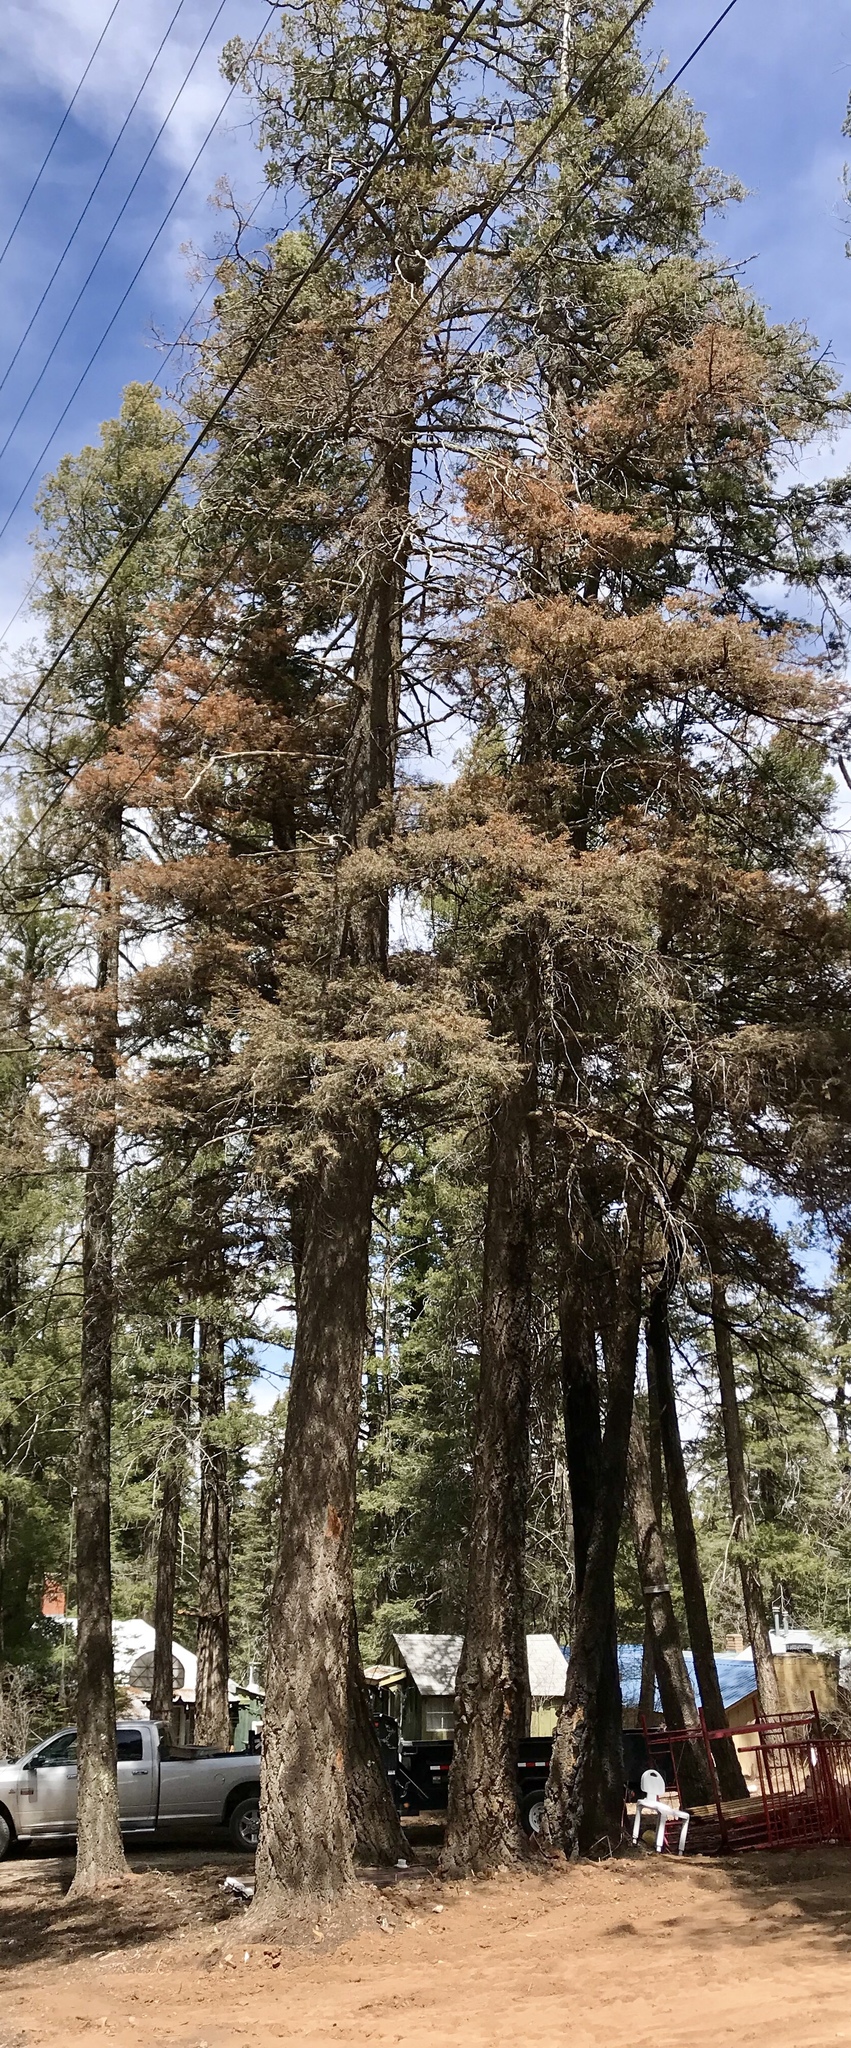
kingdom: Plantae
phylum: Tracheophyta
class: Pinopsida
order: Pinales
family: Pinaceae
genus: Pseudotsuga
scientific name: Pseudotsuga menziesii
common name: Douglas fir
